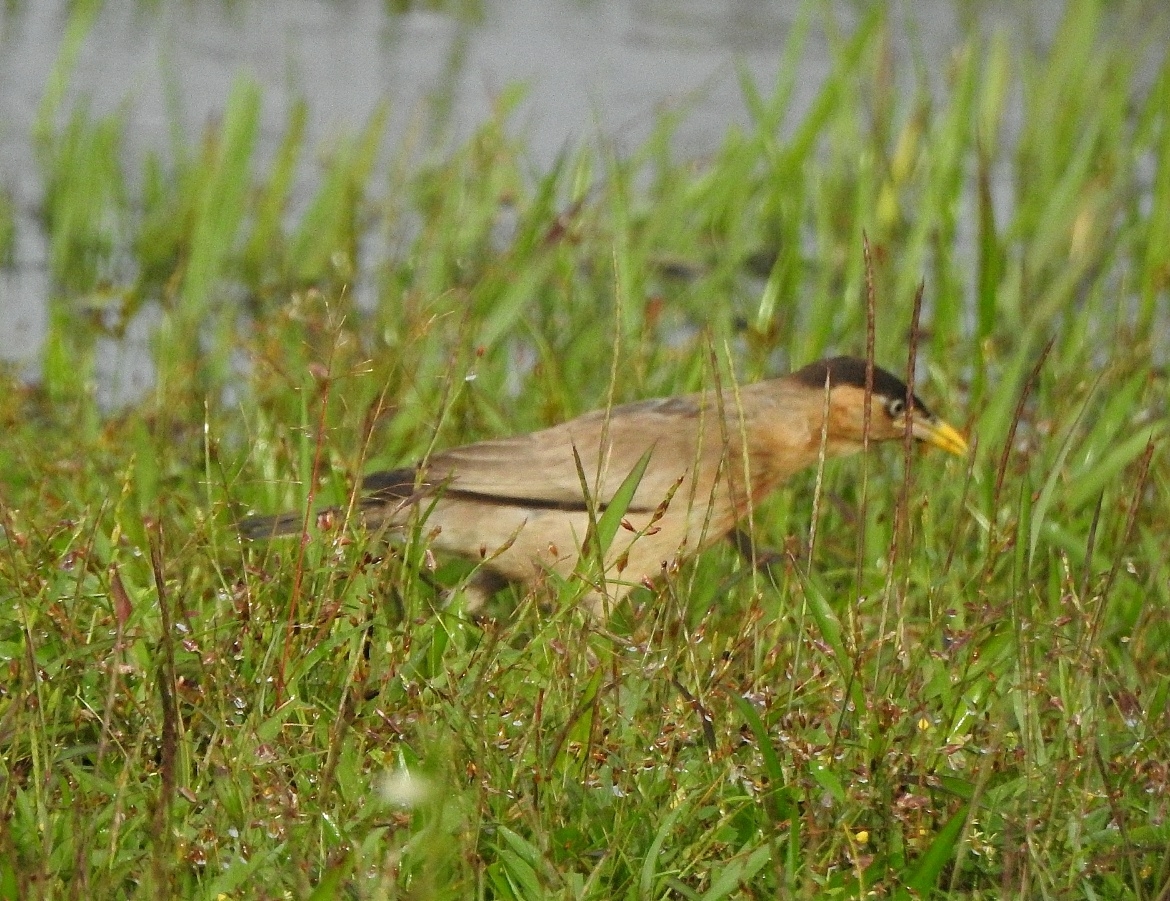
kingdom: Animalia
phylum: Chordata
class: Aves
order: Passeriformes
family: Sturnidae
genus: Sturnia
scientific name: Sturnia pagodarum
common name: Brahminy starling
